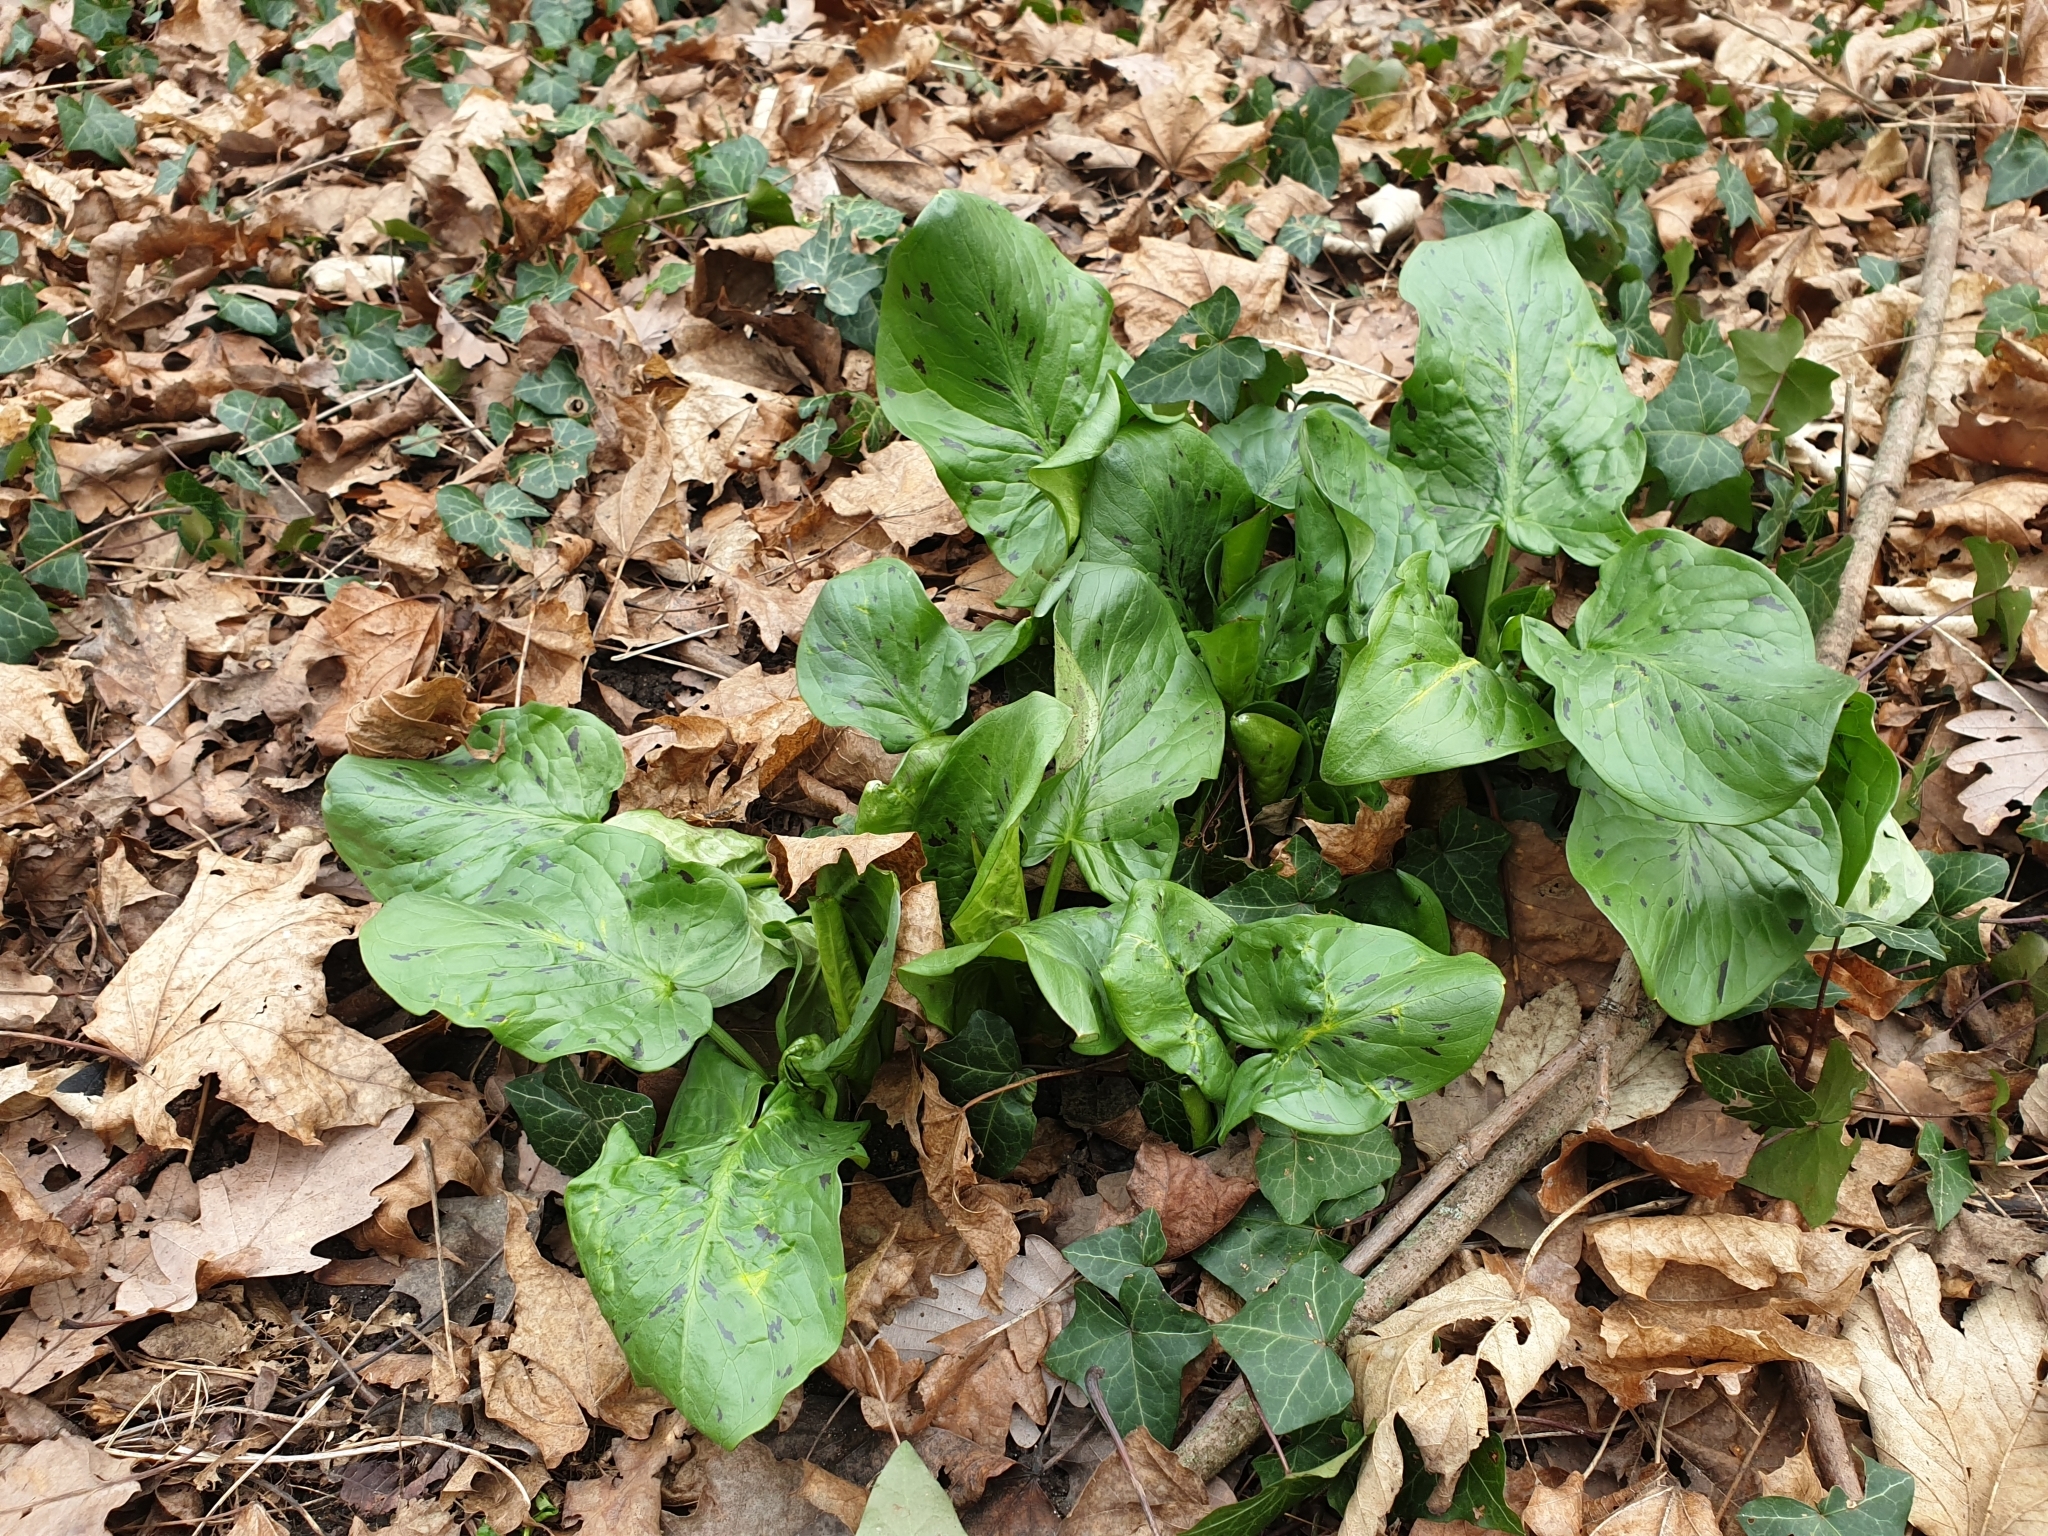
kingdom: Plantae
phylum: Tracheophyta
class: Liliopsida
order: Alismatales
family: Araceae
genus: Arum
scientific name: Arum maculatum
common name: Lords-and-ladies
